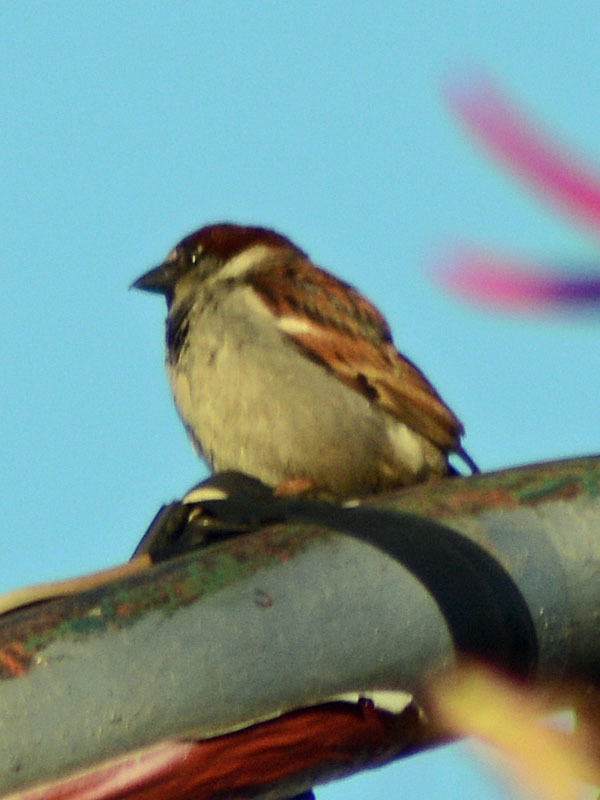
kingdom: Animalia
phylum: Chordata
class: Aves
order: Passeriformes
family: Passeridae
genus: Passer
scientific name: Passer domesticus
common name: House sparrow
